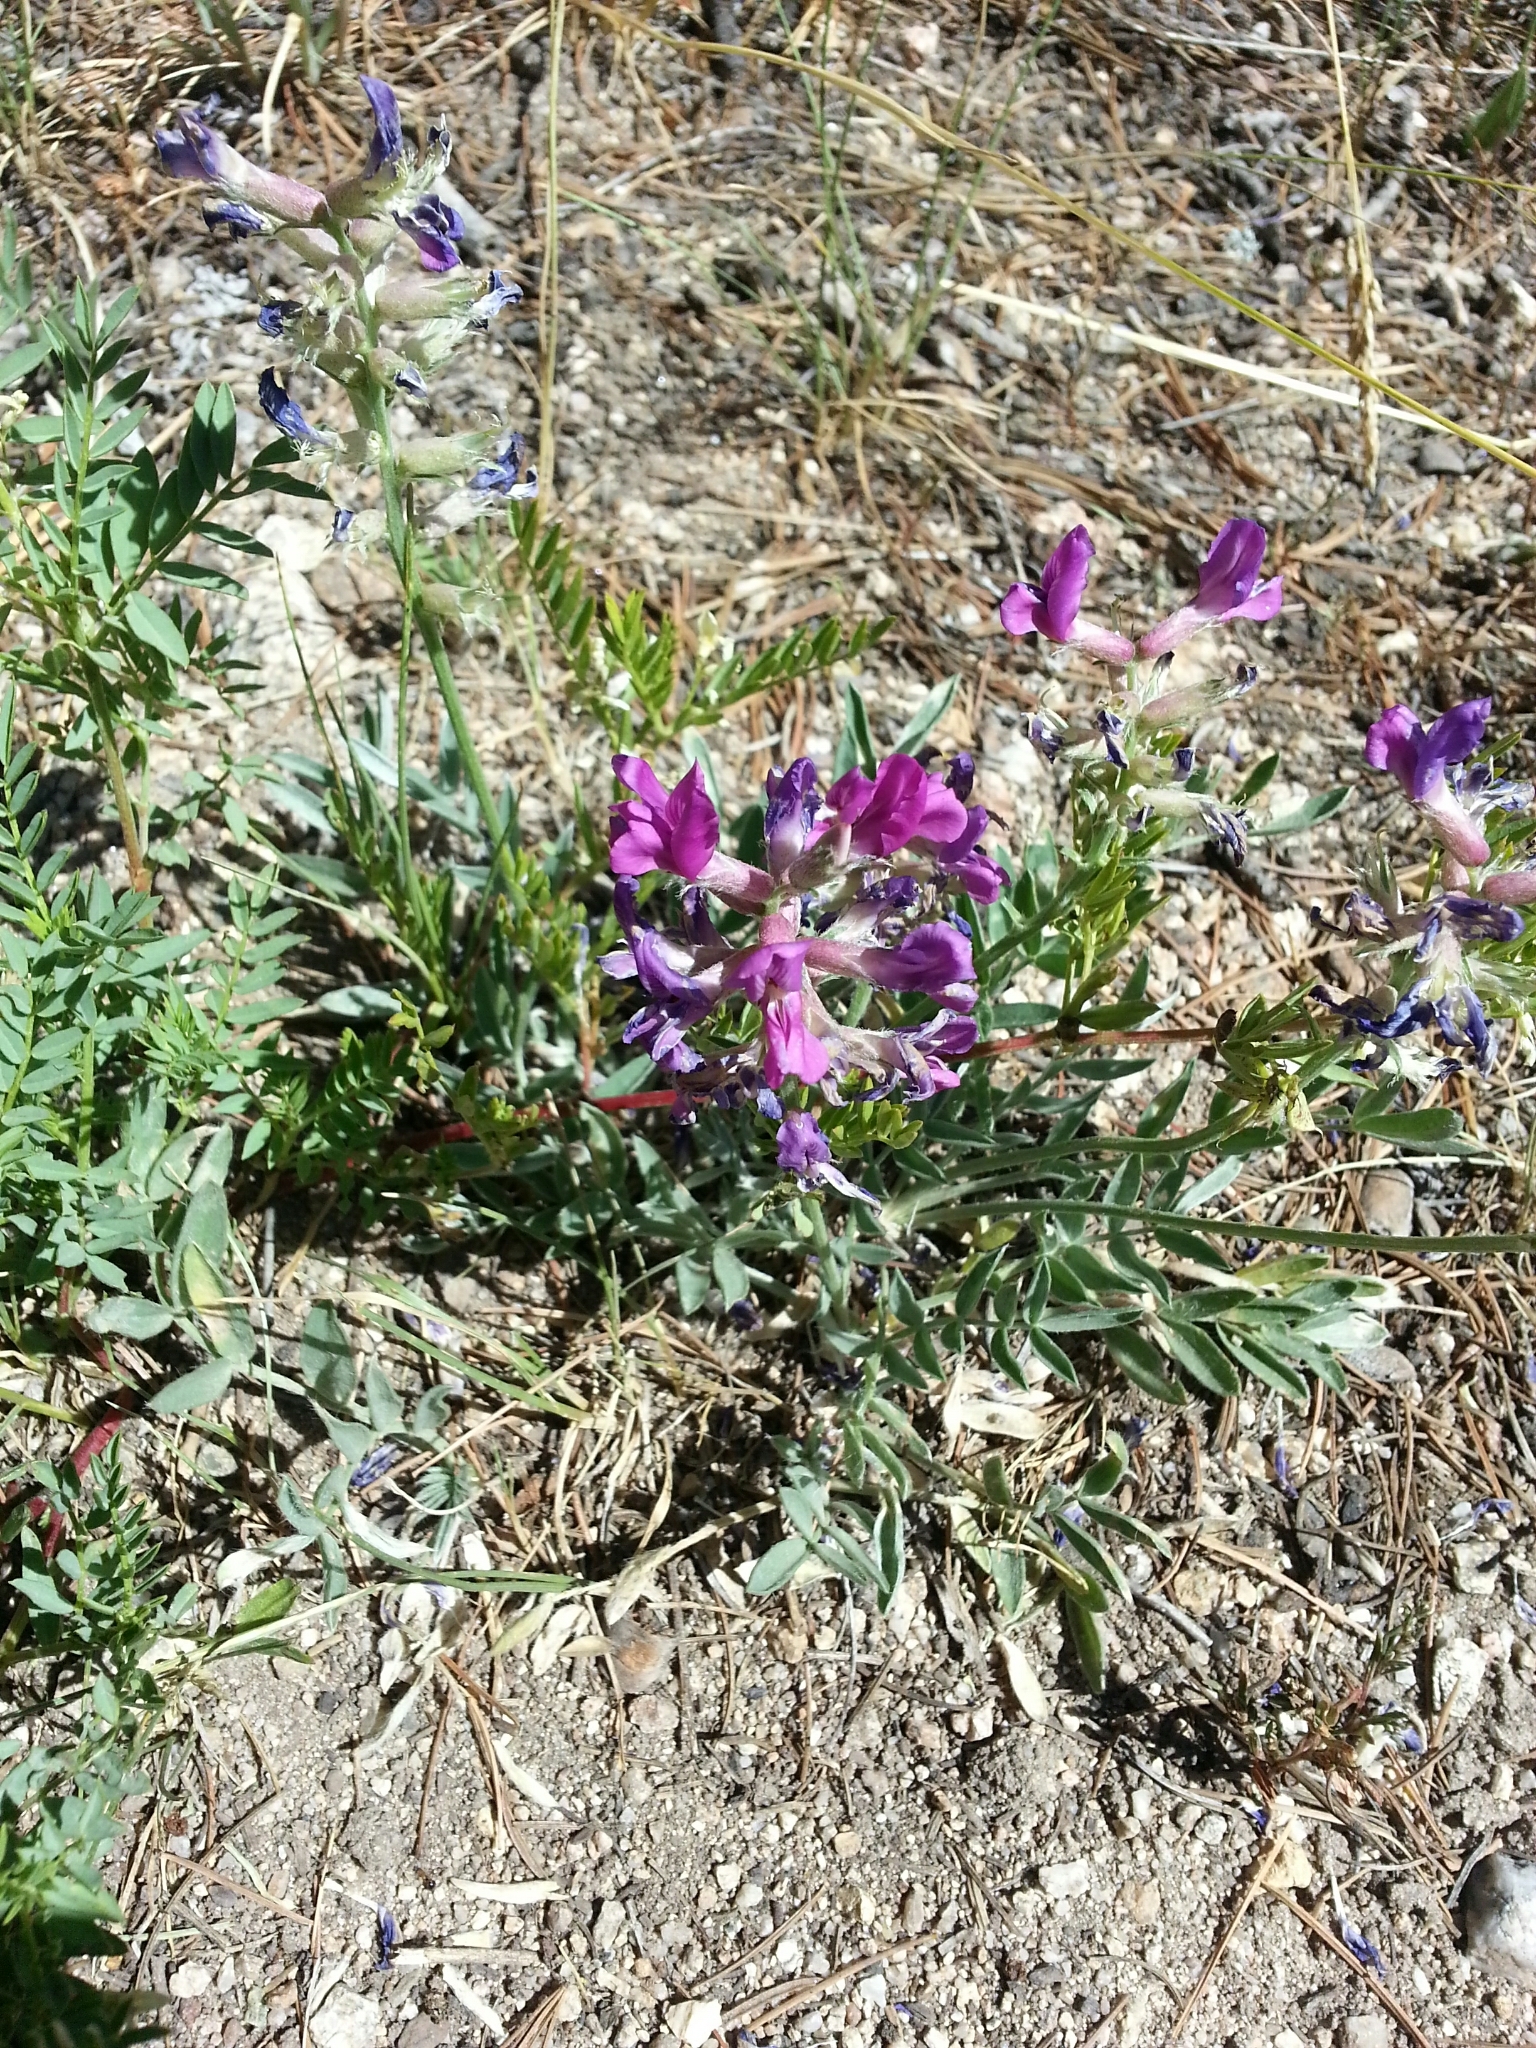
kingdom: Plantae
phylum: Tracheophyta
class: Magnoliopsida
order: Fabales
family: Fabaceae
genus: Oxytropis
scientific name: Oxytropis lambertii
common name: Purple locoweed
